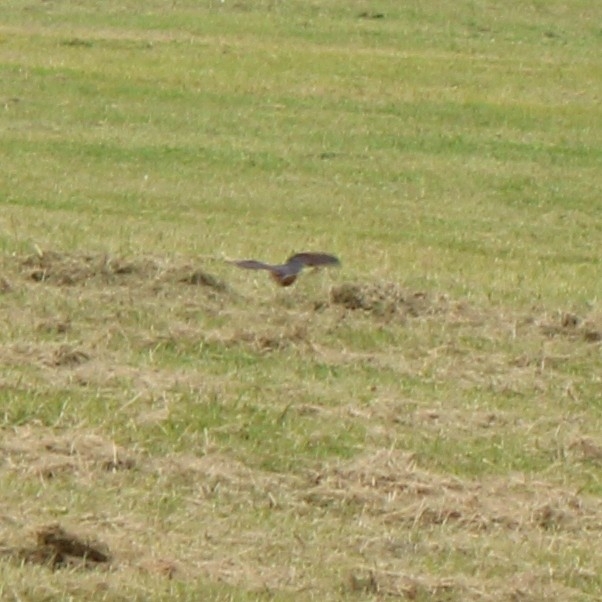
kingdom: Animalia
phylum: Chordata
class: Aves
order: Passeriformes
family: Hirundinidae
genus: Hirundo
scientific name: Hirundo rustica
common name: Barn swallow
